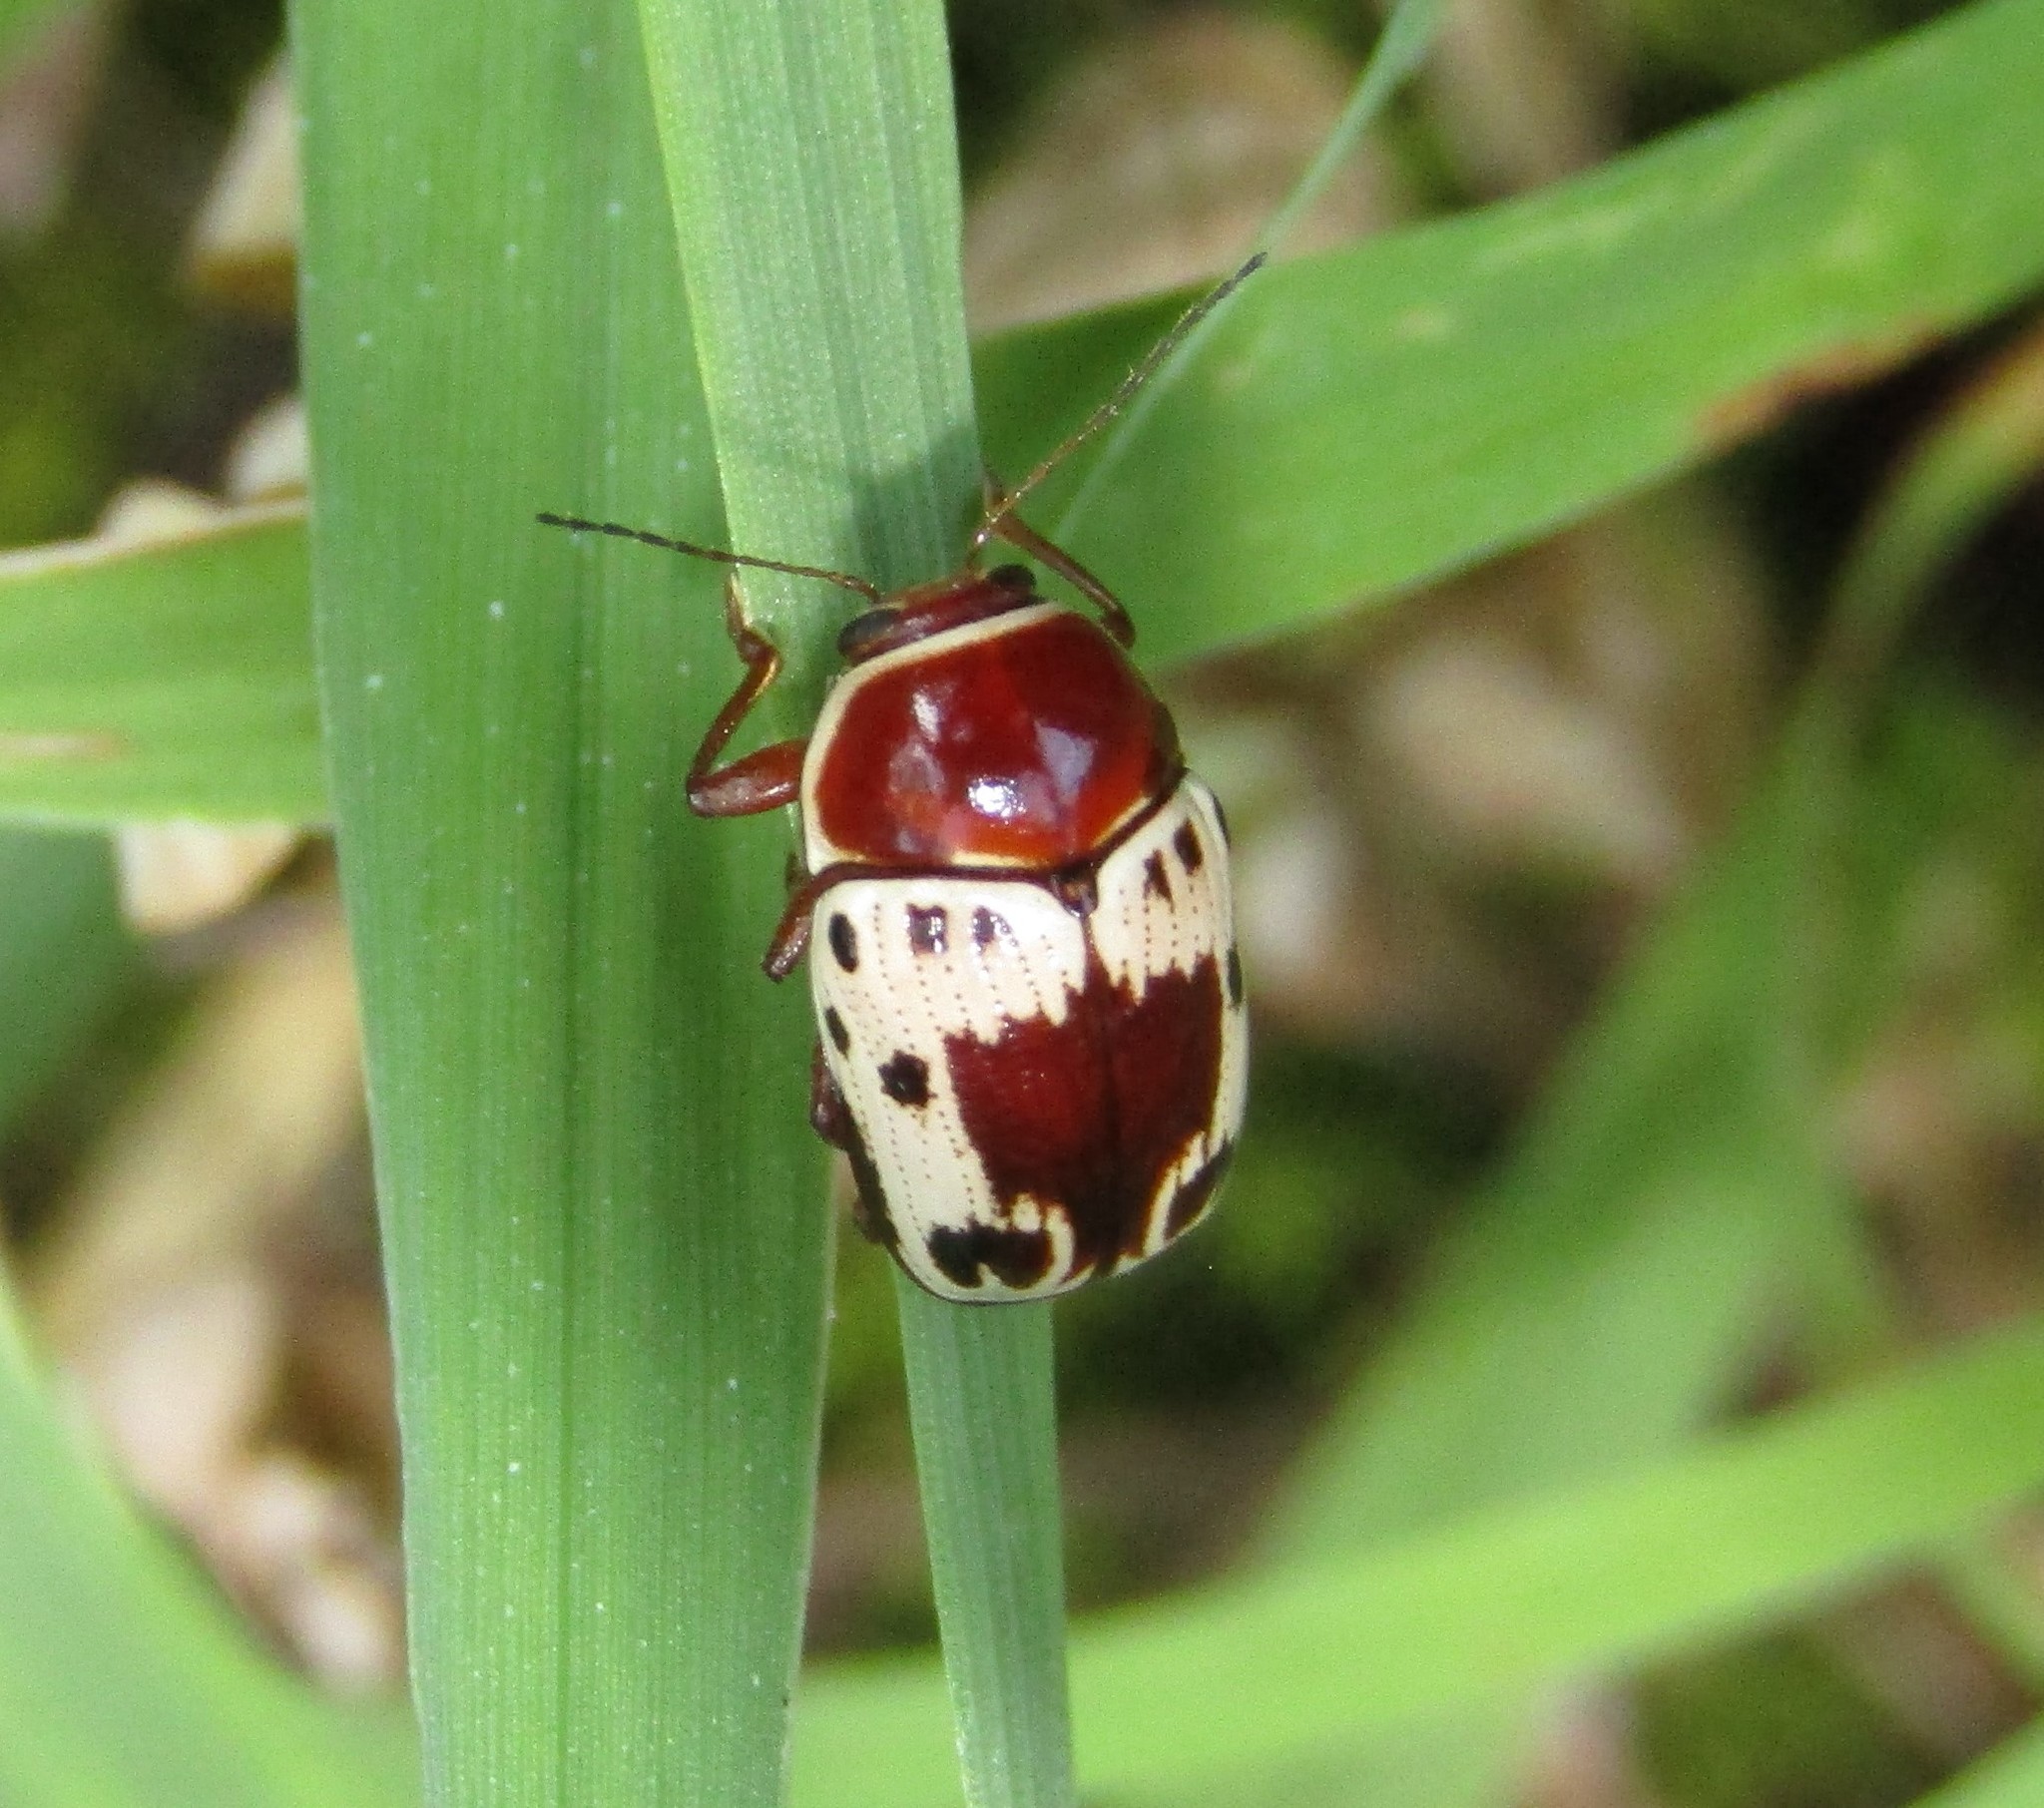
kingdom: Animalia
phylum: Arthropoda
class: Insecta
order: Coleoptera
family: Chrysomelidae
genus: Cryptocephalus
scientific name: Cryptocephalus mutabilis
